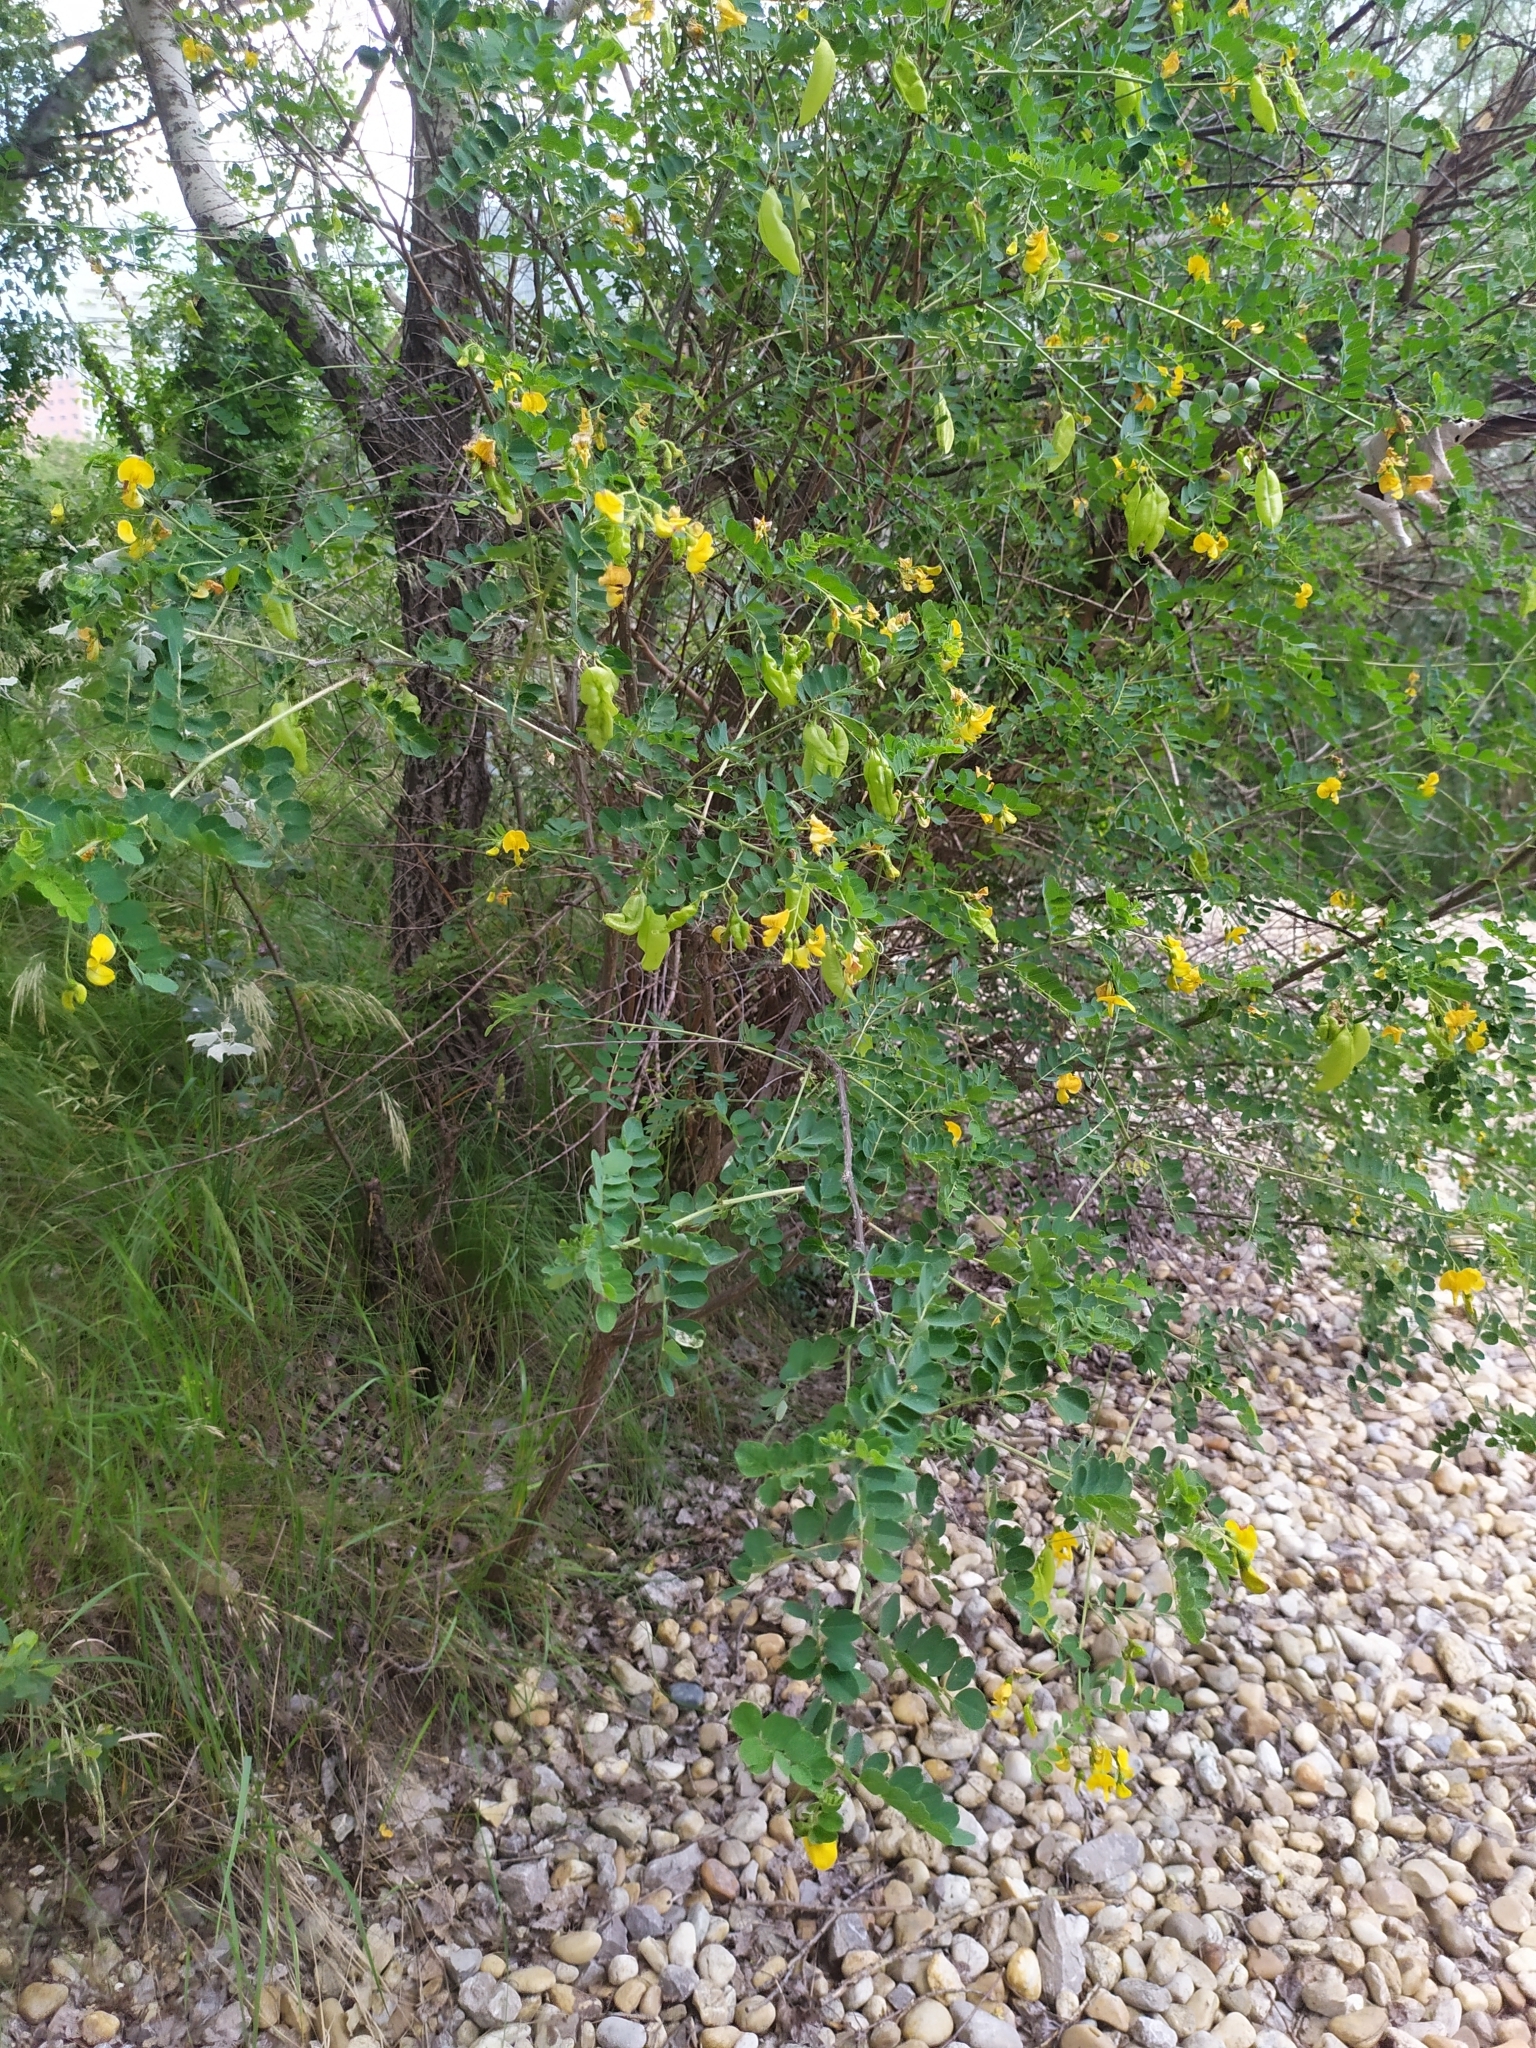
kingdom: Plantae
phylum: Tracheophyta
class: Magnoliopsida
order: Fabales
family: Fabaceae
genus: Colutea
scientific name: Colutea arborescens
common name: Bladder-senna
